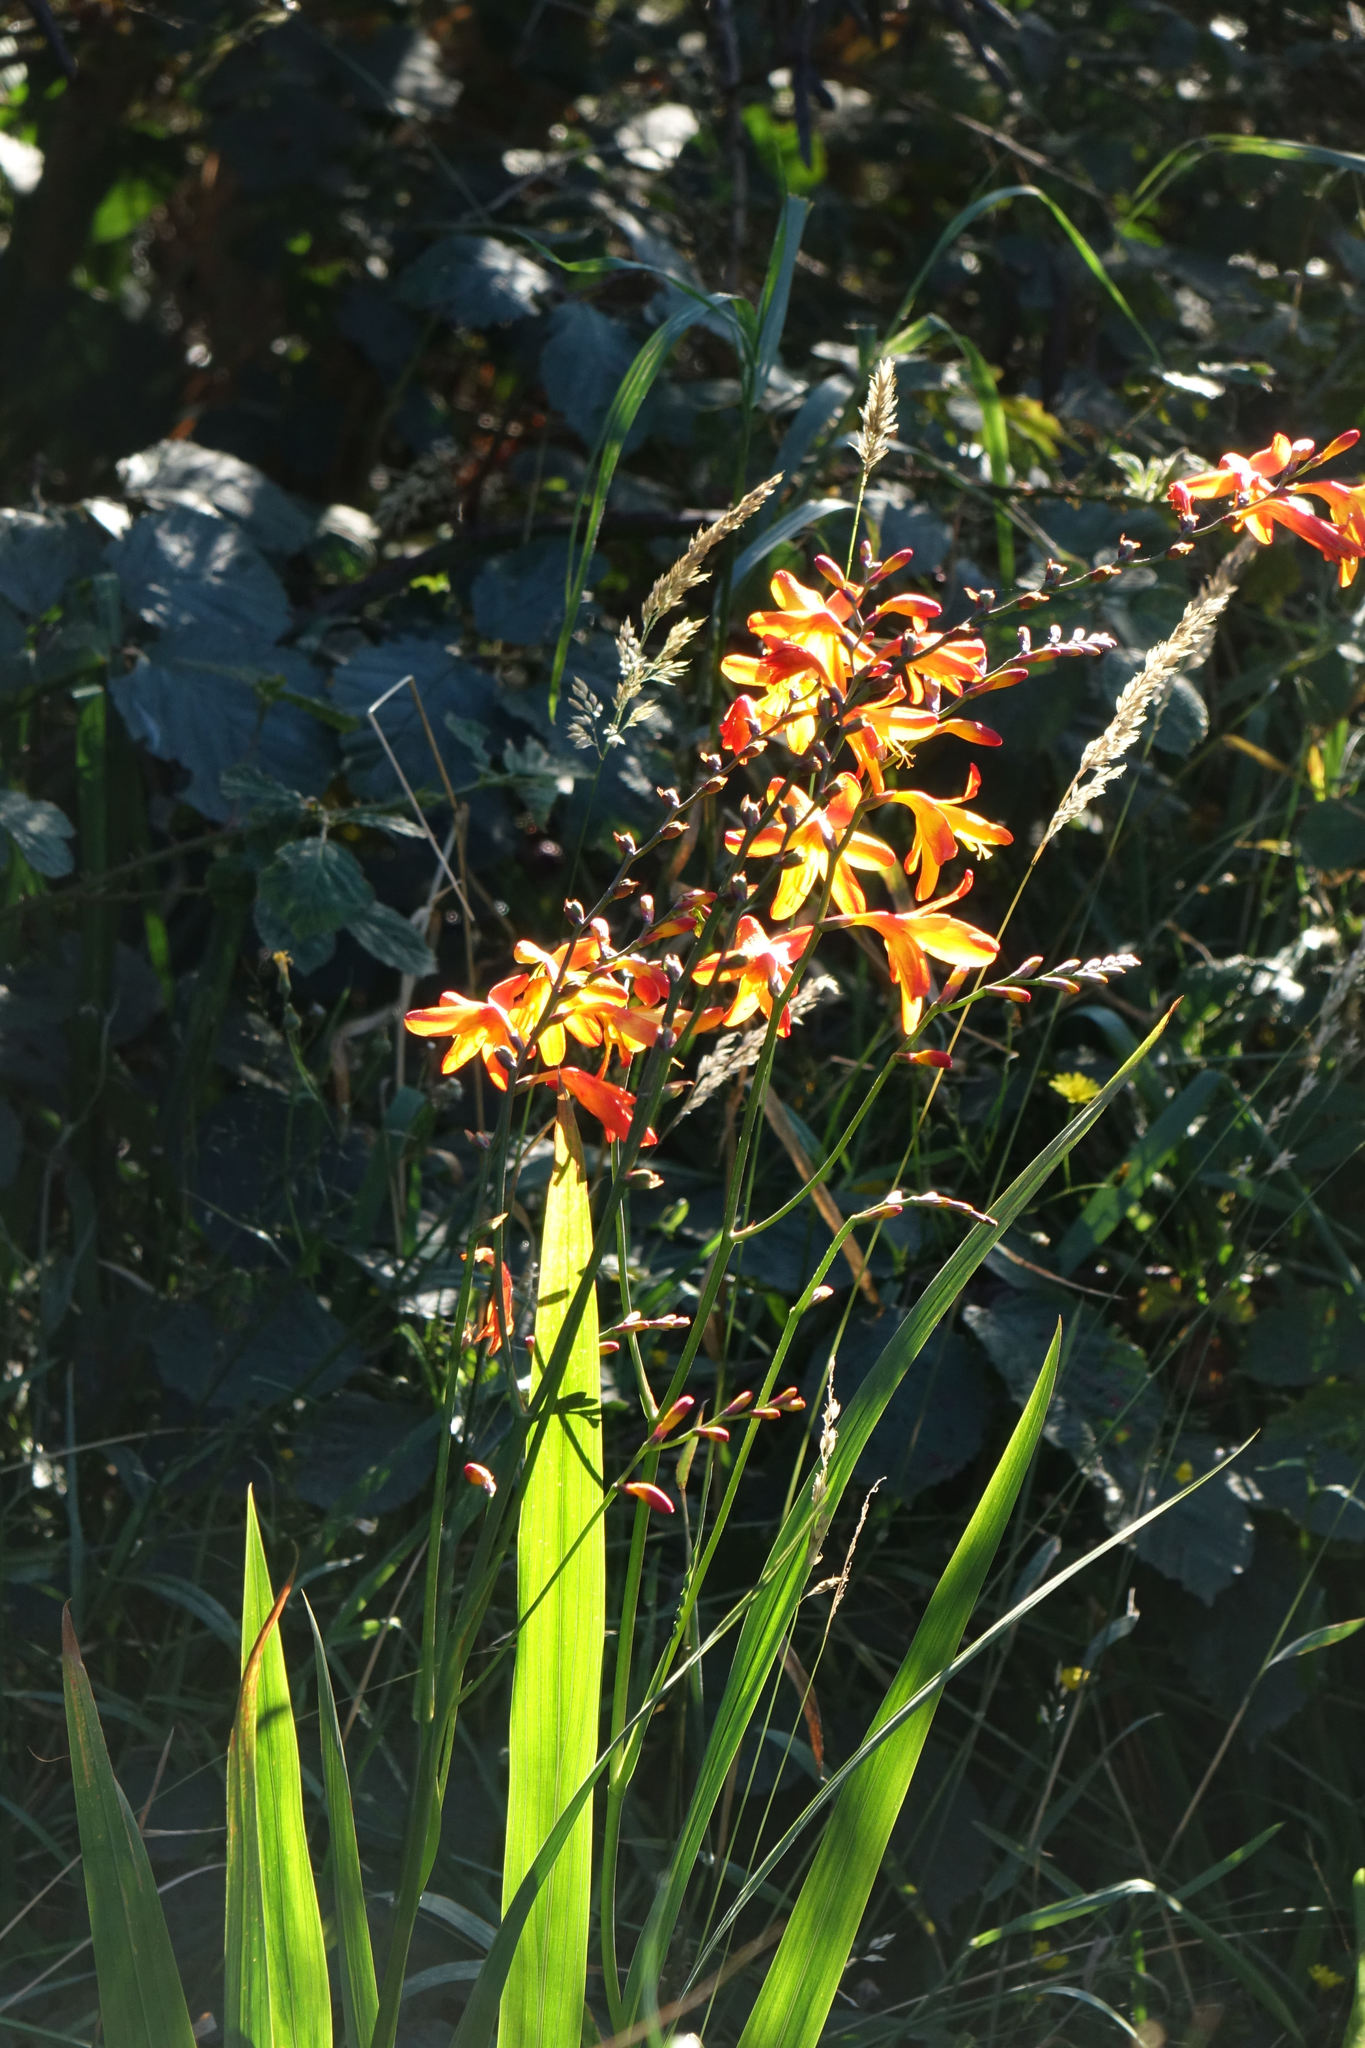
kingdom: Plantae
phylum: Tracheophyta
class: Liliopsida
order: Asparagales
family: Iridaceae
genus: Crocosmia
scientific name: Crocosmia crocosmiiflora
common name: Montbretia
